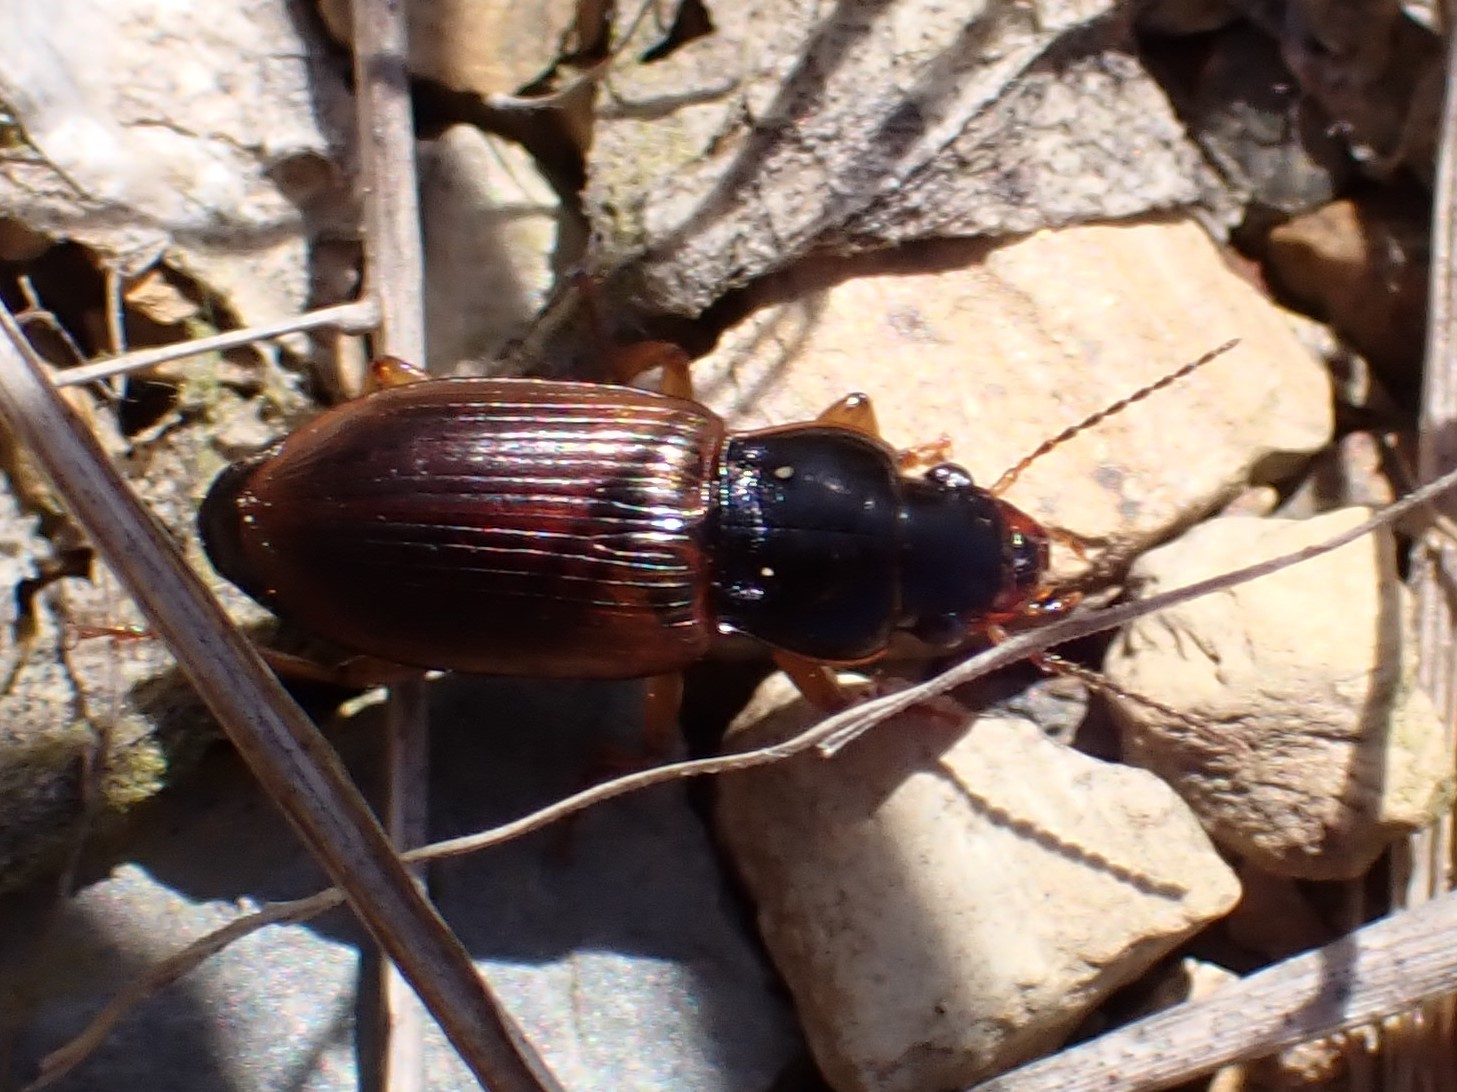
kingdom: Animalia
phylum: Arthropoda
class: Insecta
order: Coleoptera
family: Carabidae
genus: Anisodactylus
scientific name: Anisodactylus sanctaecrucis
